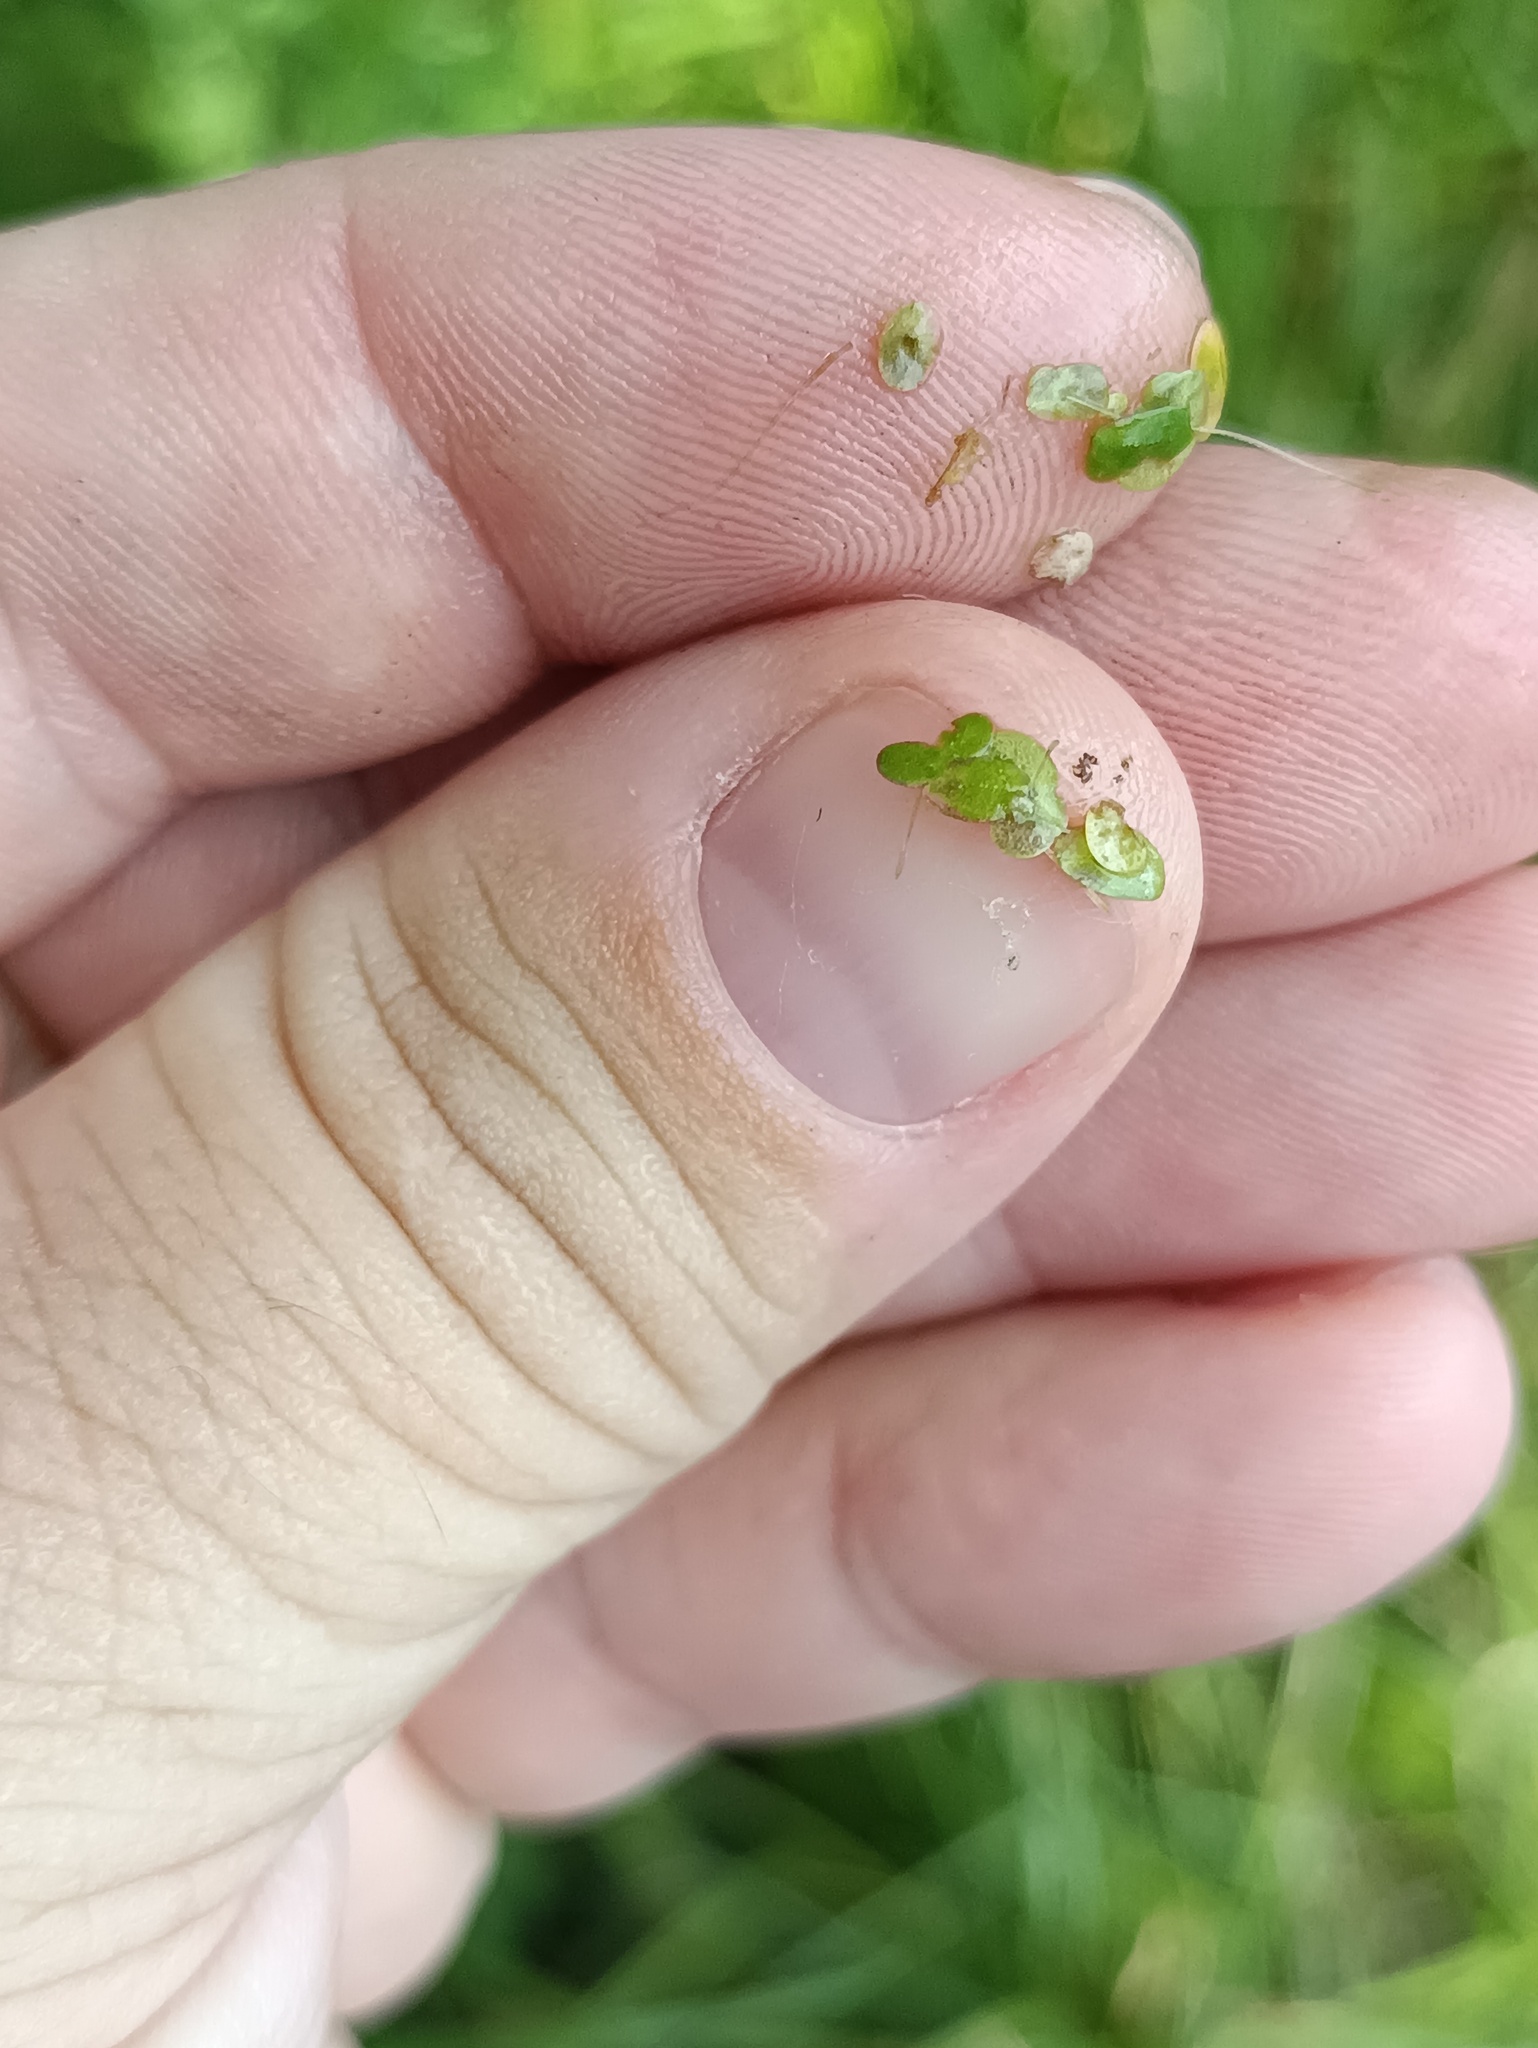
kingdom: Plantae
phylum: Tracheophyta
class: Liliopsida
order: Alismatales
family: Araceae
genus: Lemna
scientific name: Lemna turionifera
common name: Perennial duckweed
